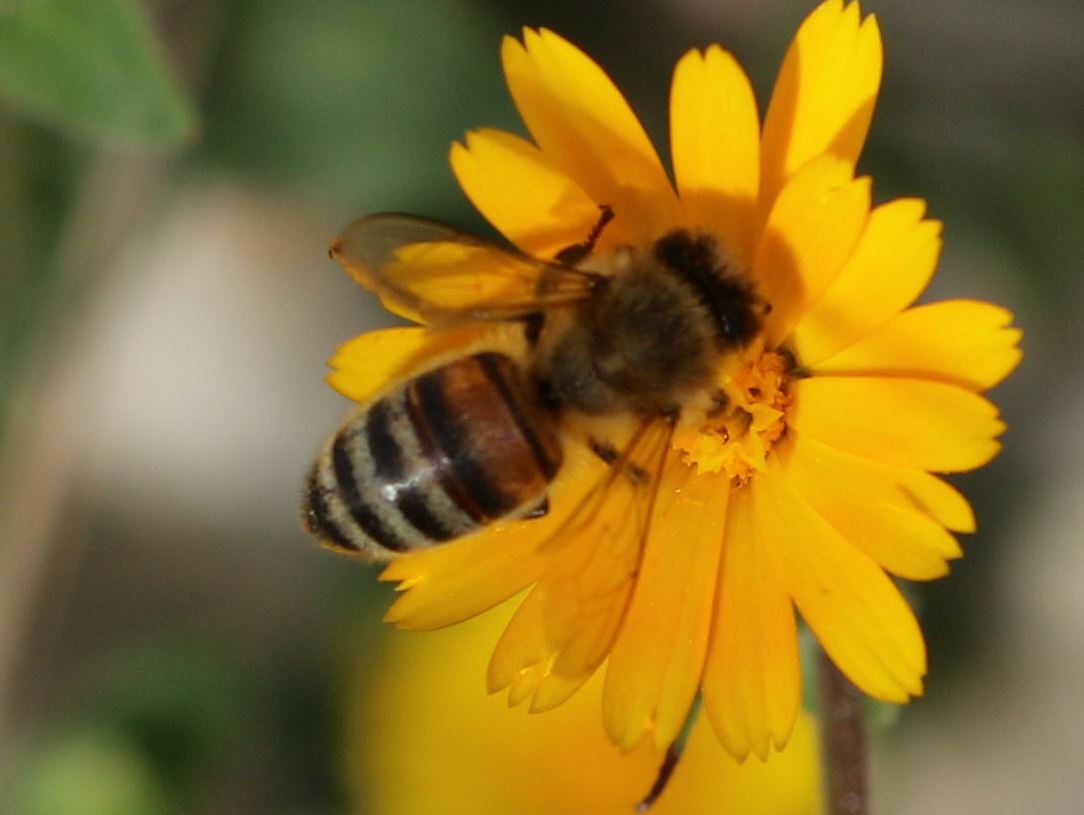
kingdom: Animalia
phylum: Arthropoda
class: Insecta
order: Hymenoptera
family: Apidae
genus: Apis
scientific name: Apis mellifera
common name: Honey bee
